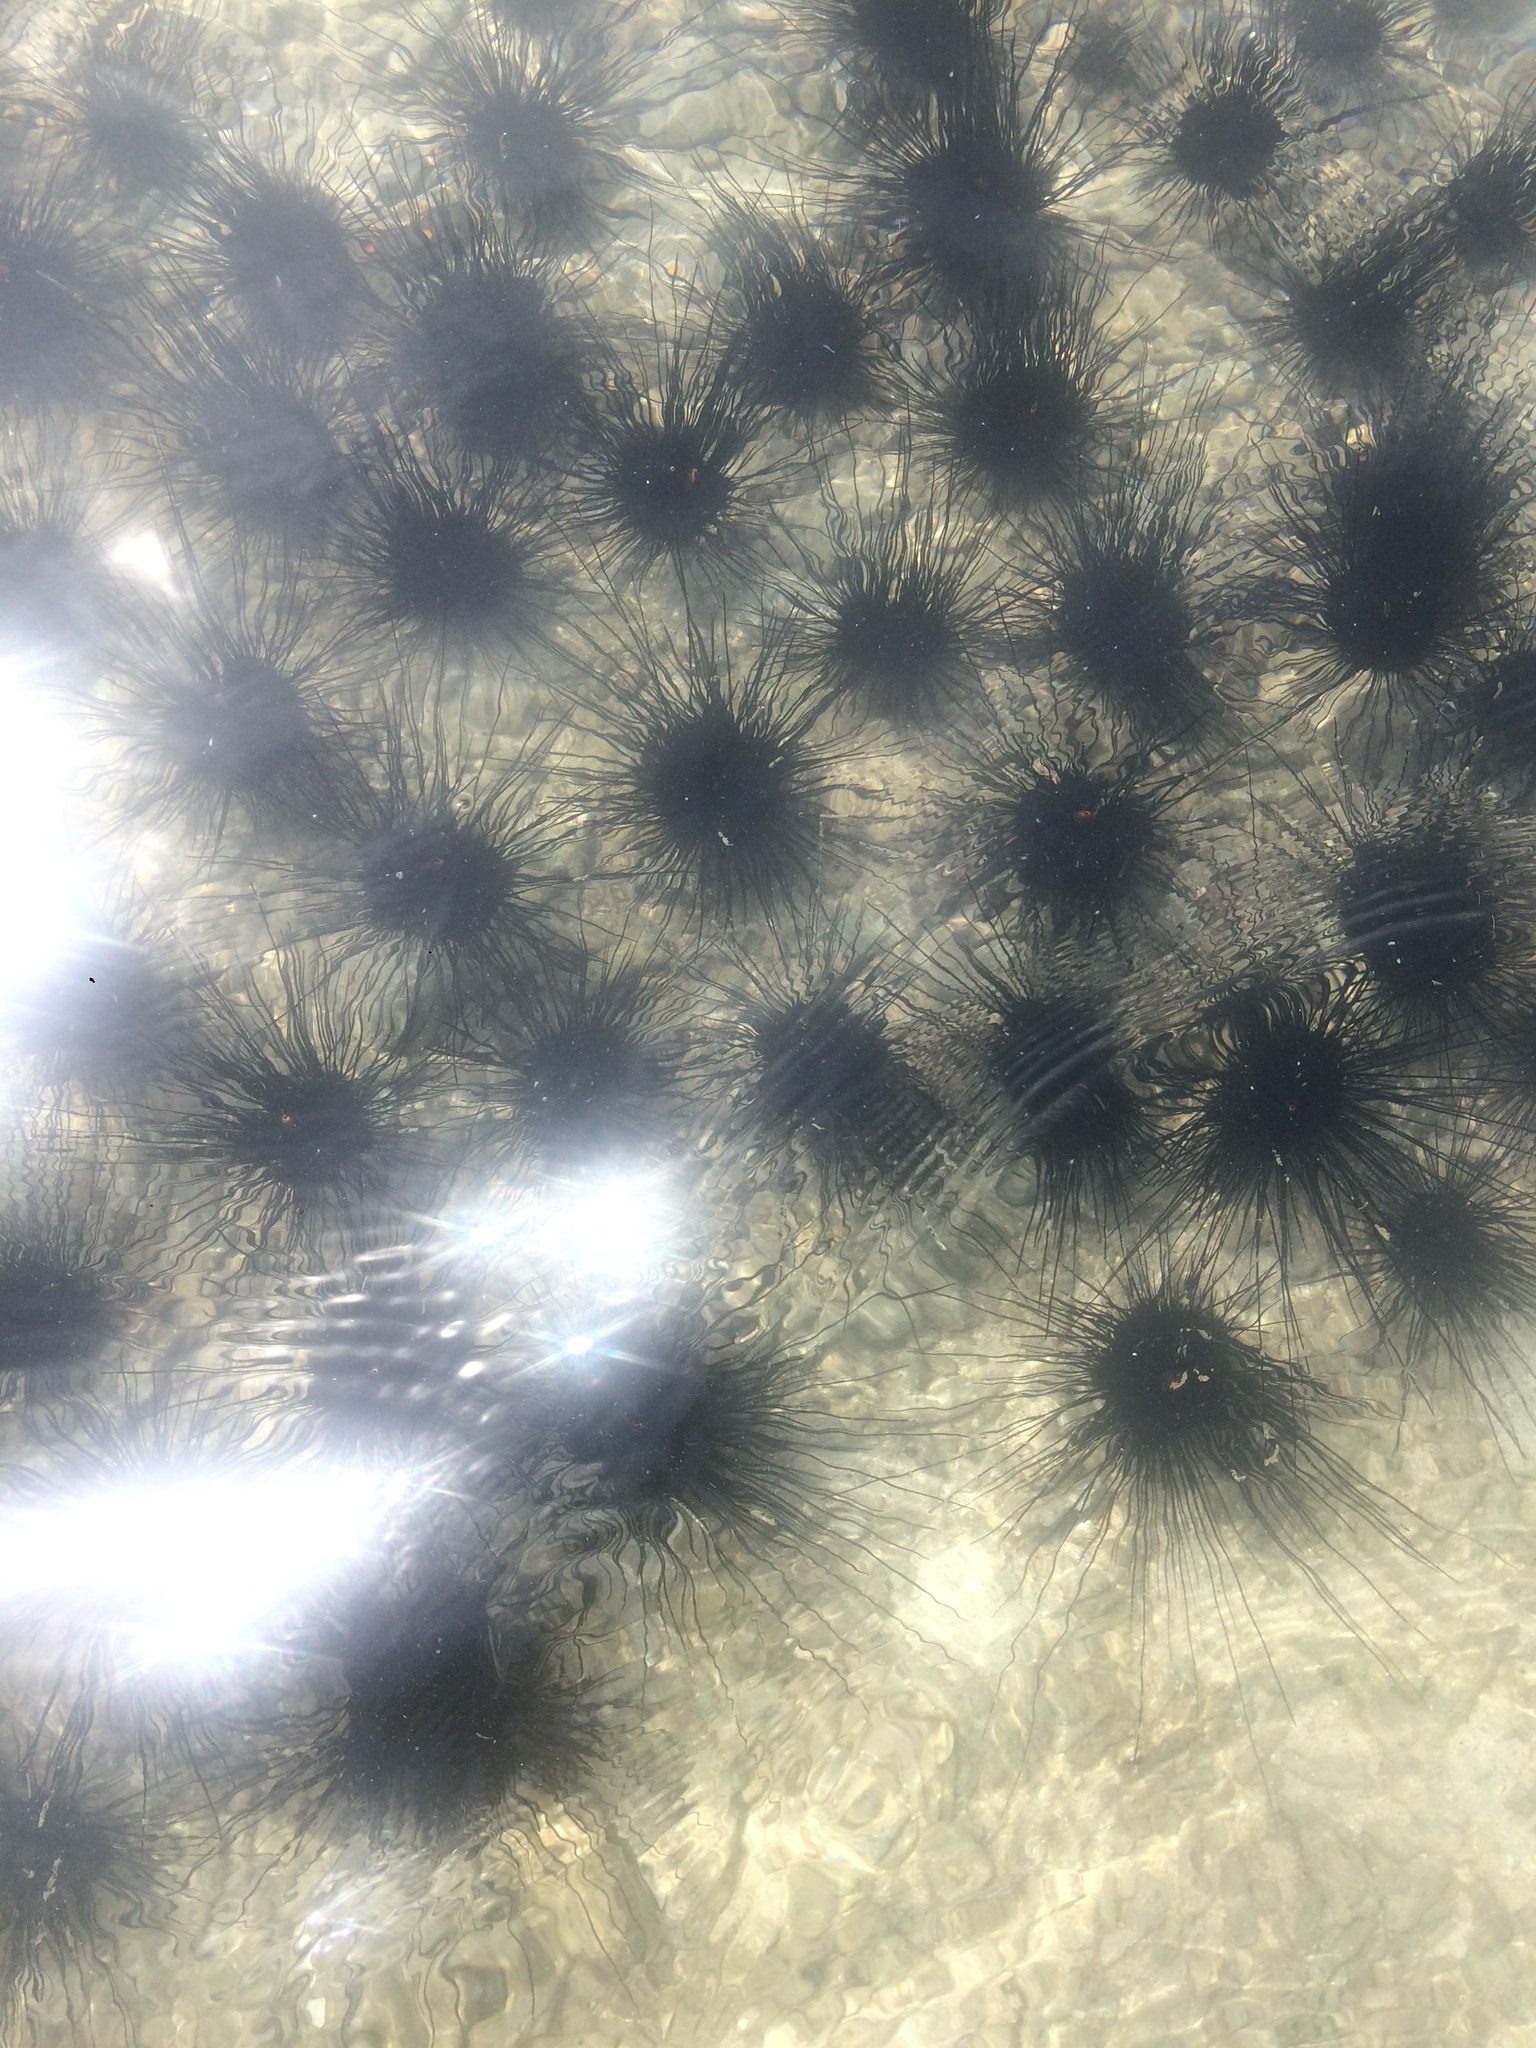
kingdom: Animalia
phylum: Echinodermata
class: Echinoidea
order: Diadematoida
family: Diadematidae
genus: Diadema
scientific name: Diadema setosum
